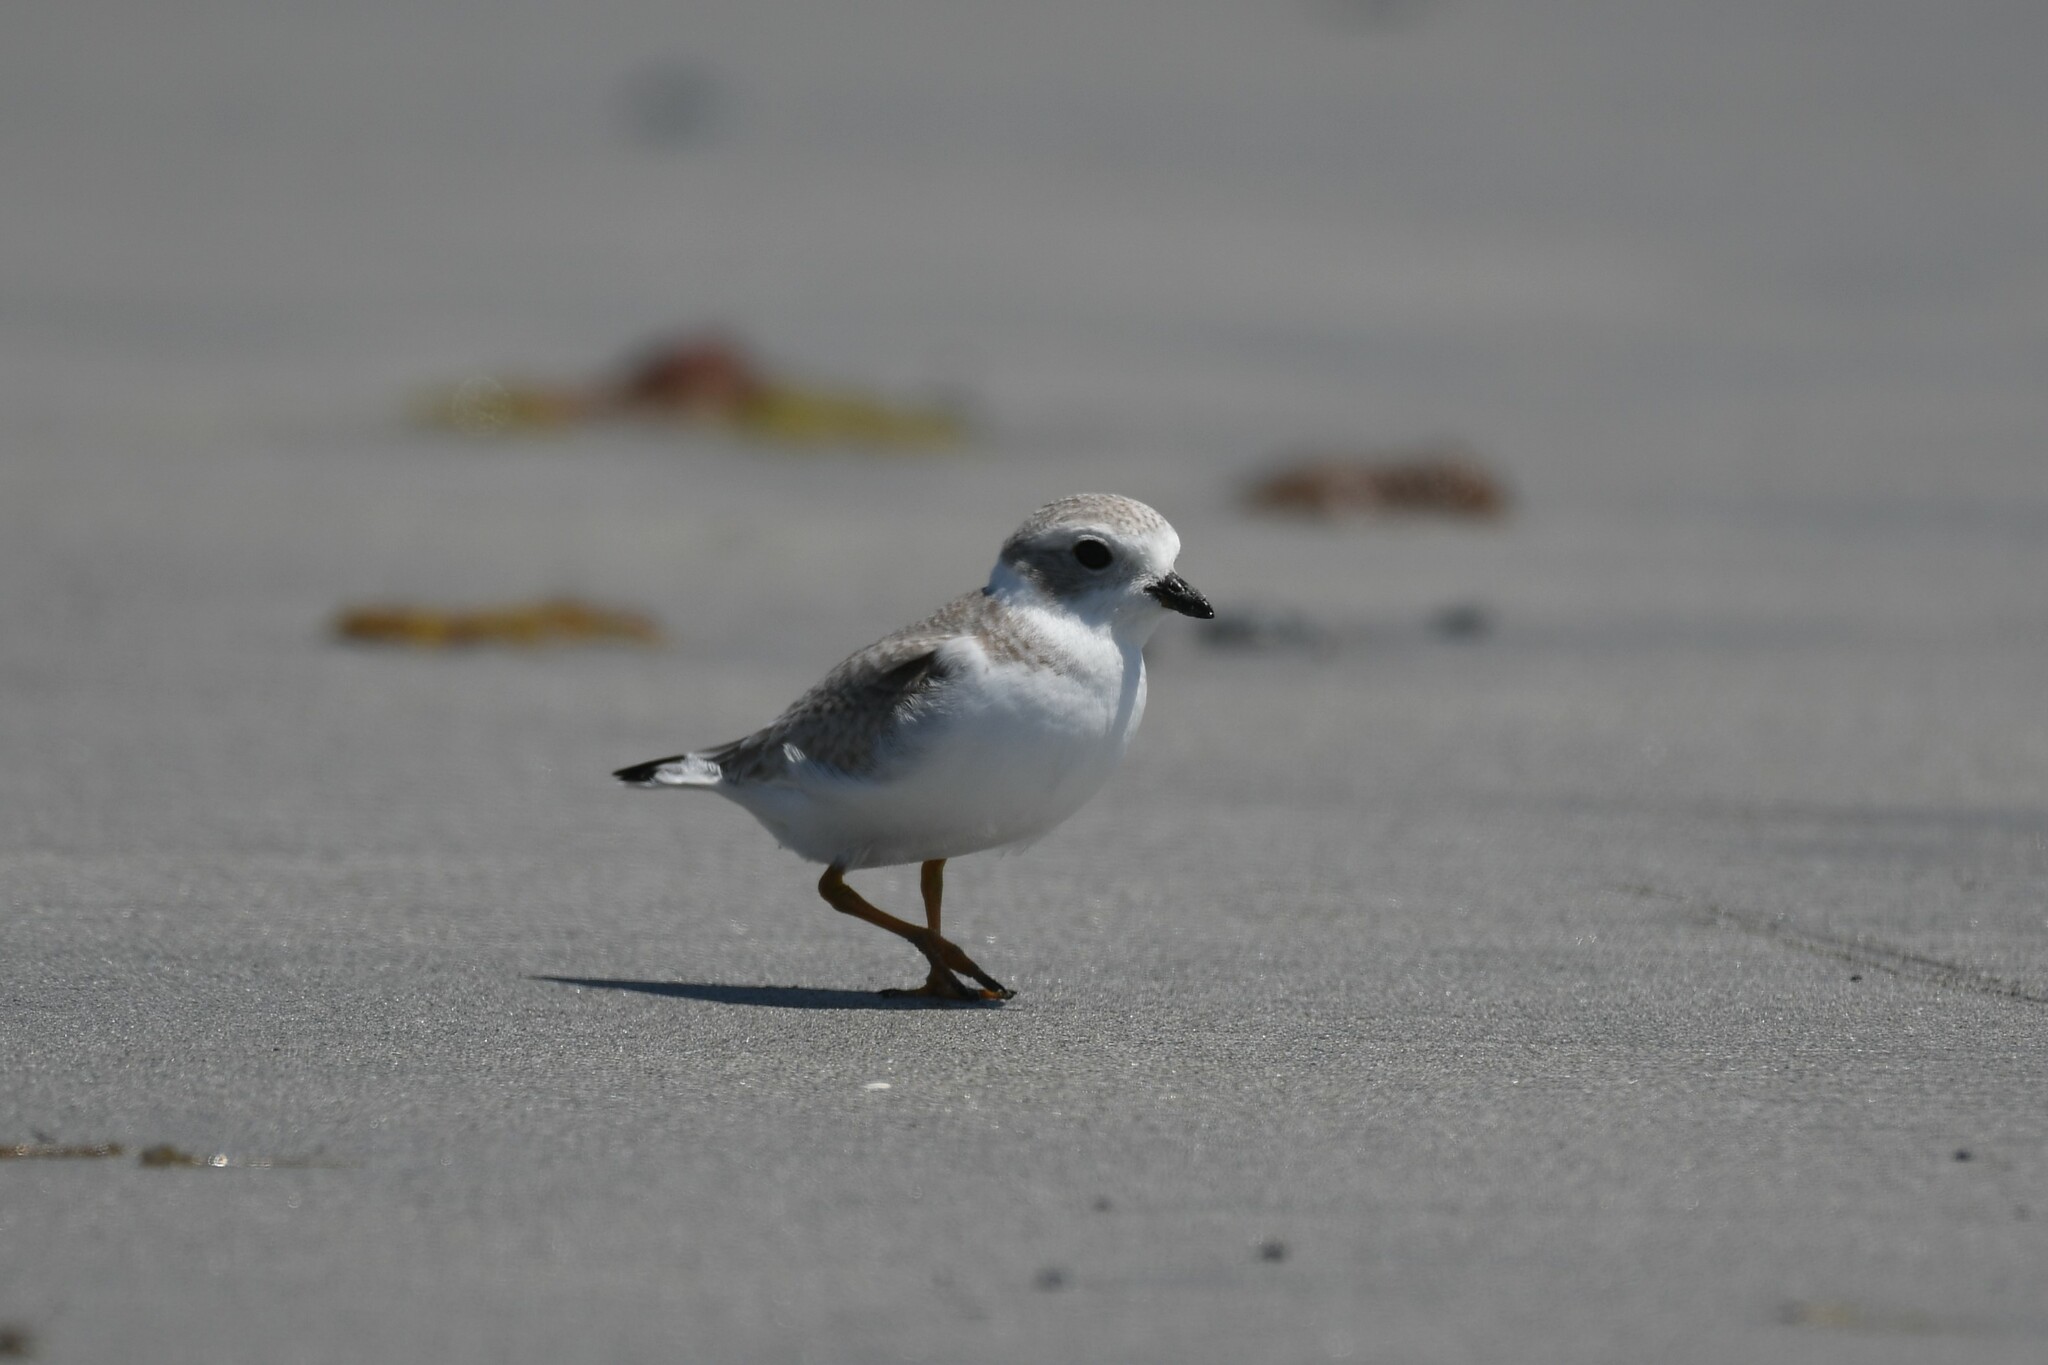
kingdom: Animalia
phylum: Chordata
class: Aves
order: Charadriiformes
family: Charadriidae
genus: Charadrius
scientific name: Charadrius melodus
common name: Piping plover
